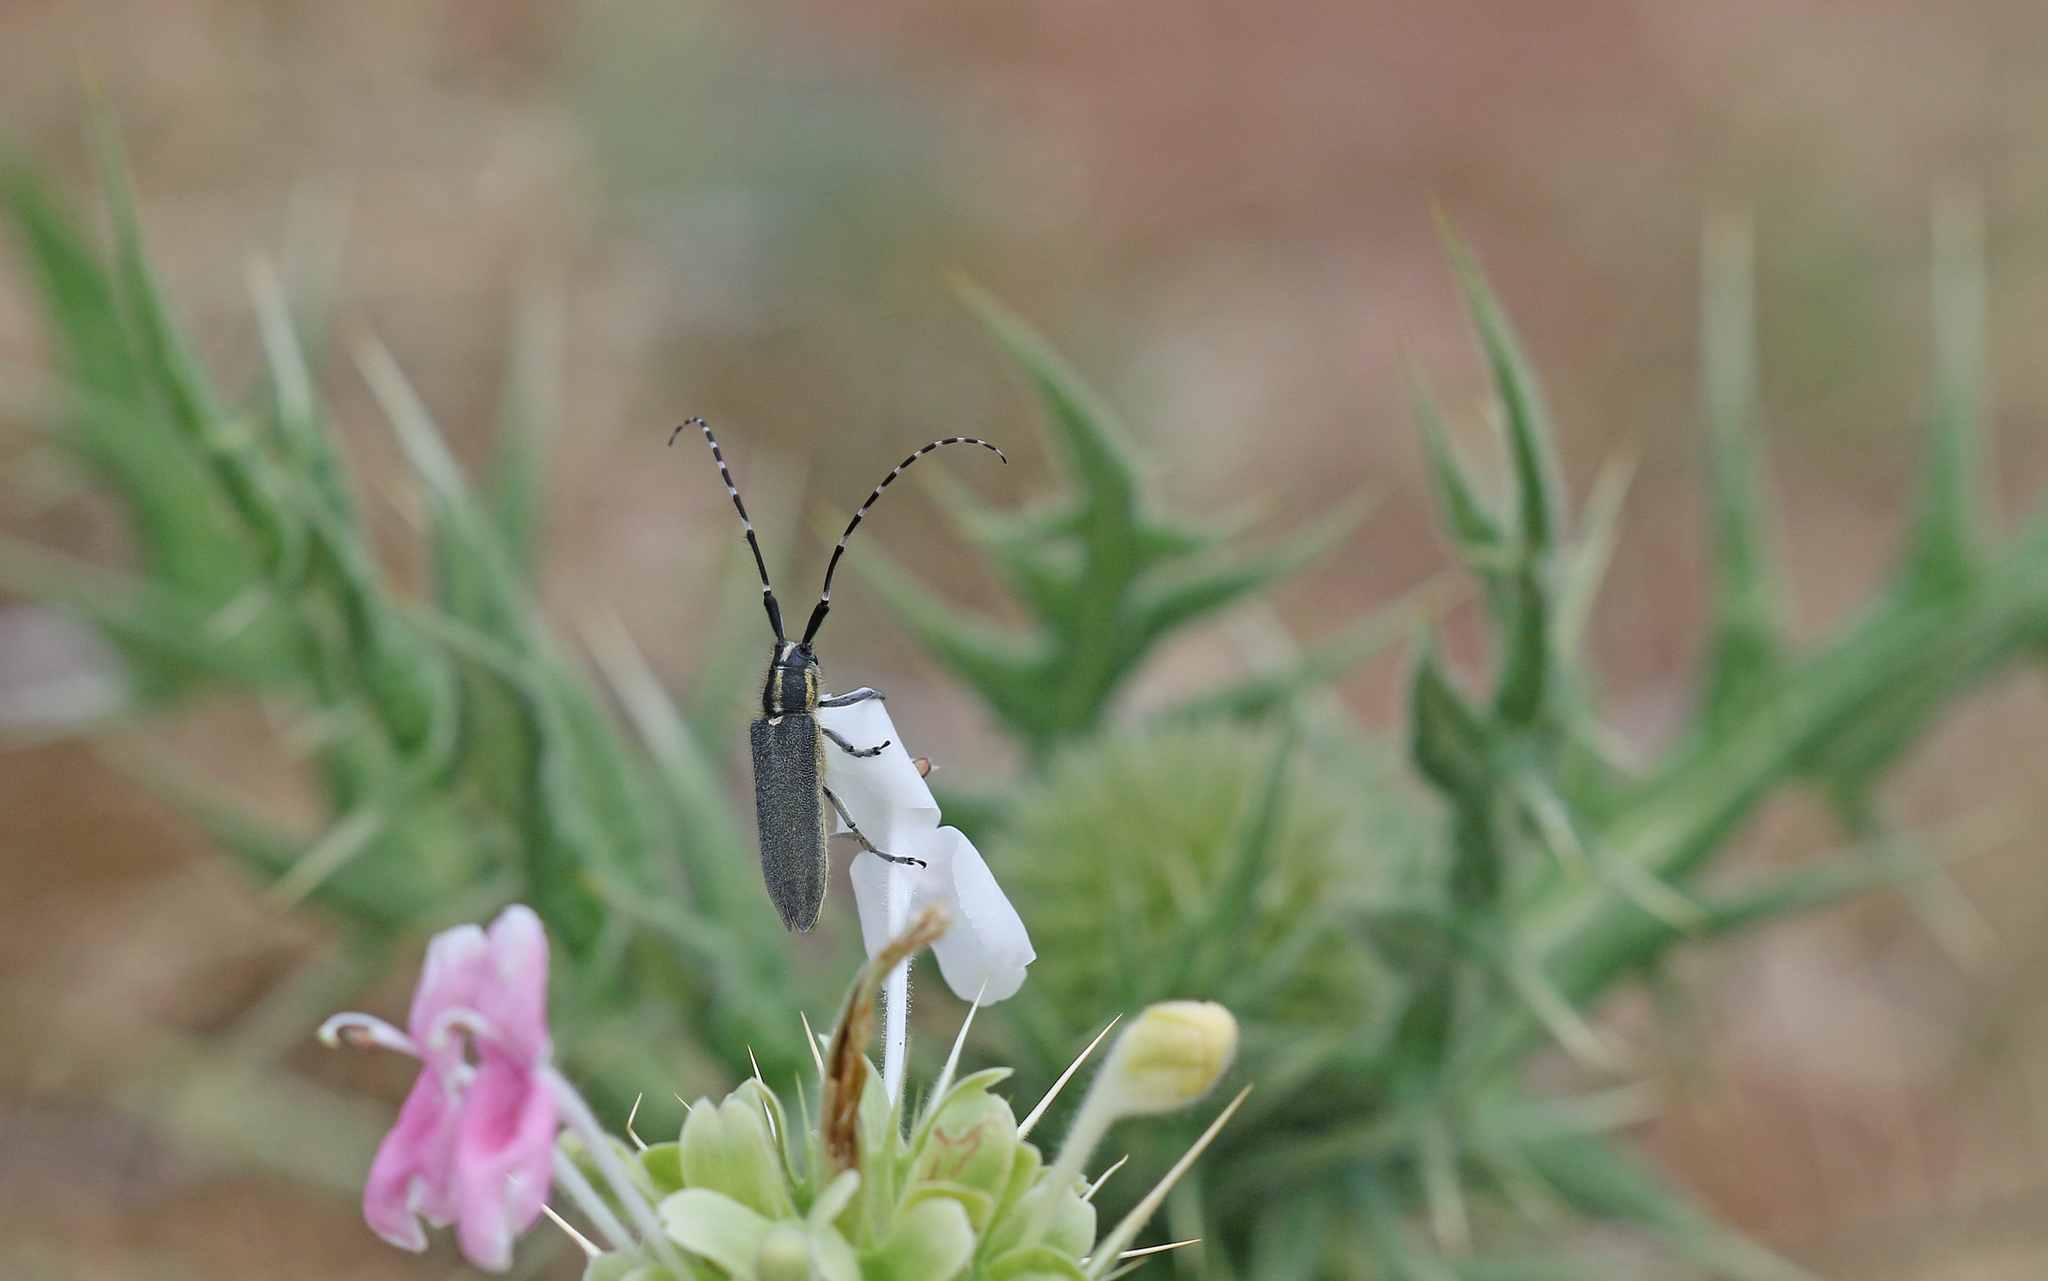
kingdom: Animalia
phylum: Arthropoda
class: Insecta
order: Coleoptera
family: Cerambycidae
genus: Agapanthia
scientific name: Agapanthia cynarae
